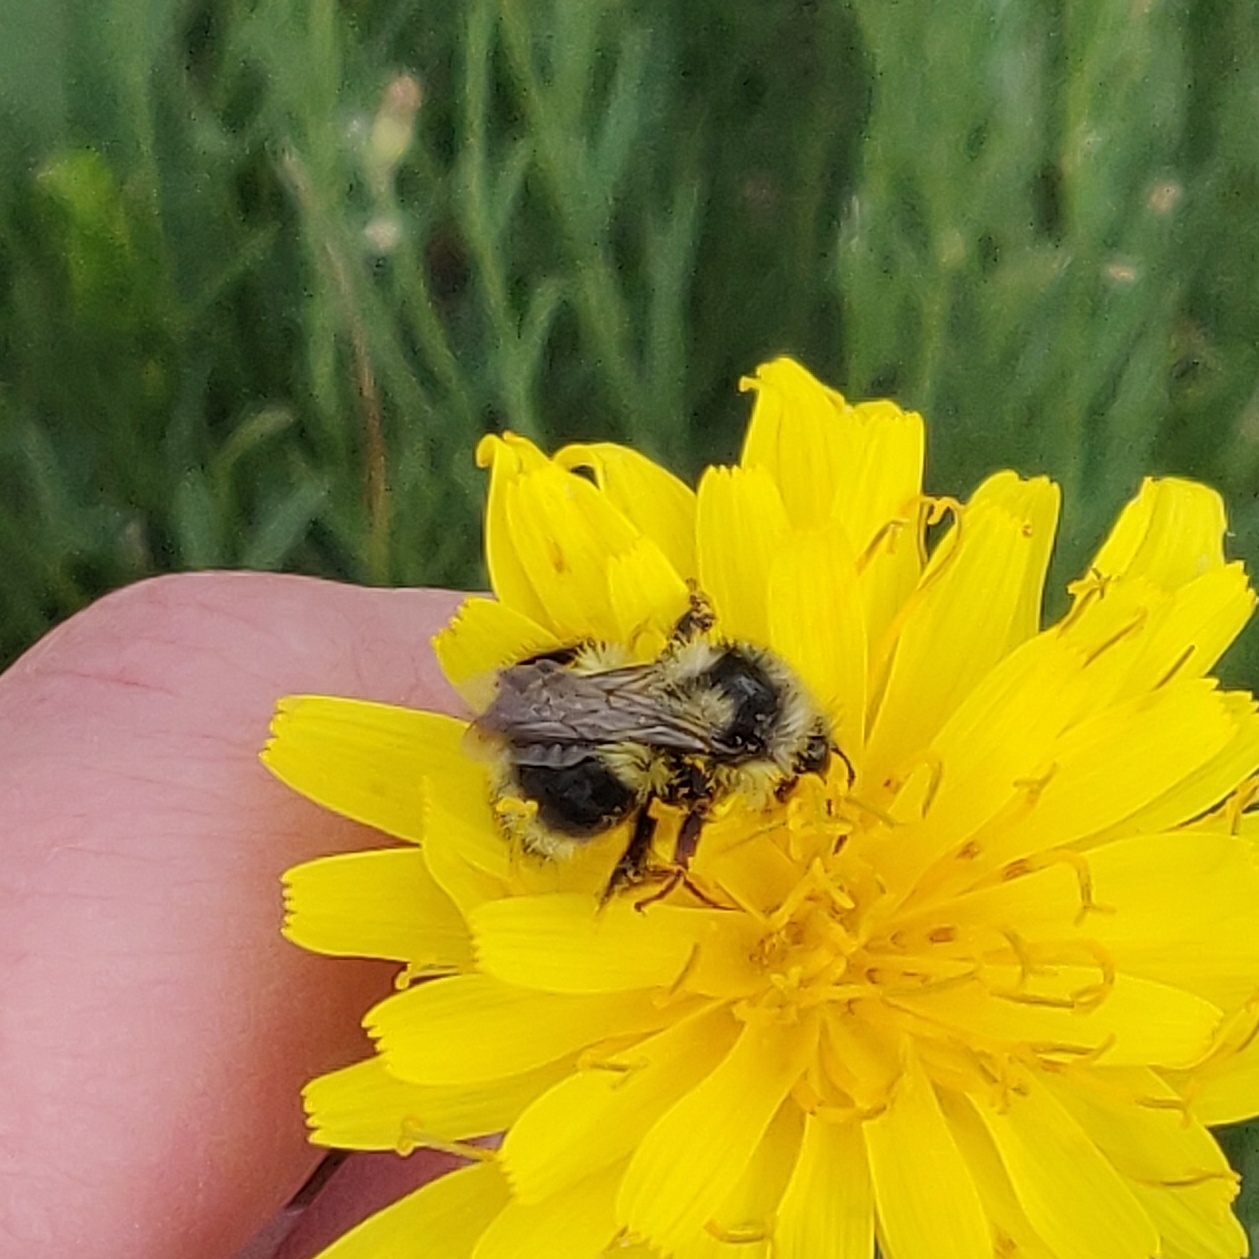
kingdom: Animalia
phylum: Arthropoda
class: Insecta
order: Hymenoptera
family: Apidae
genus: Bombus
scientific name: Bombus vancouverensis
